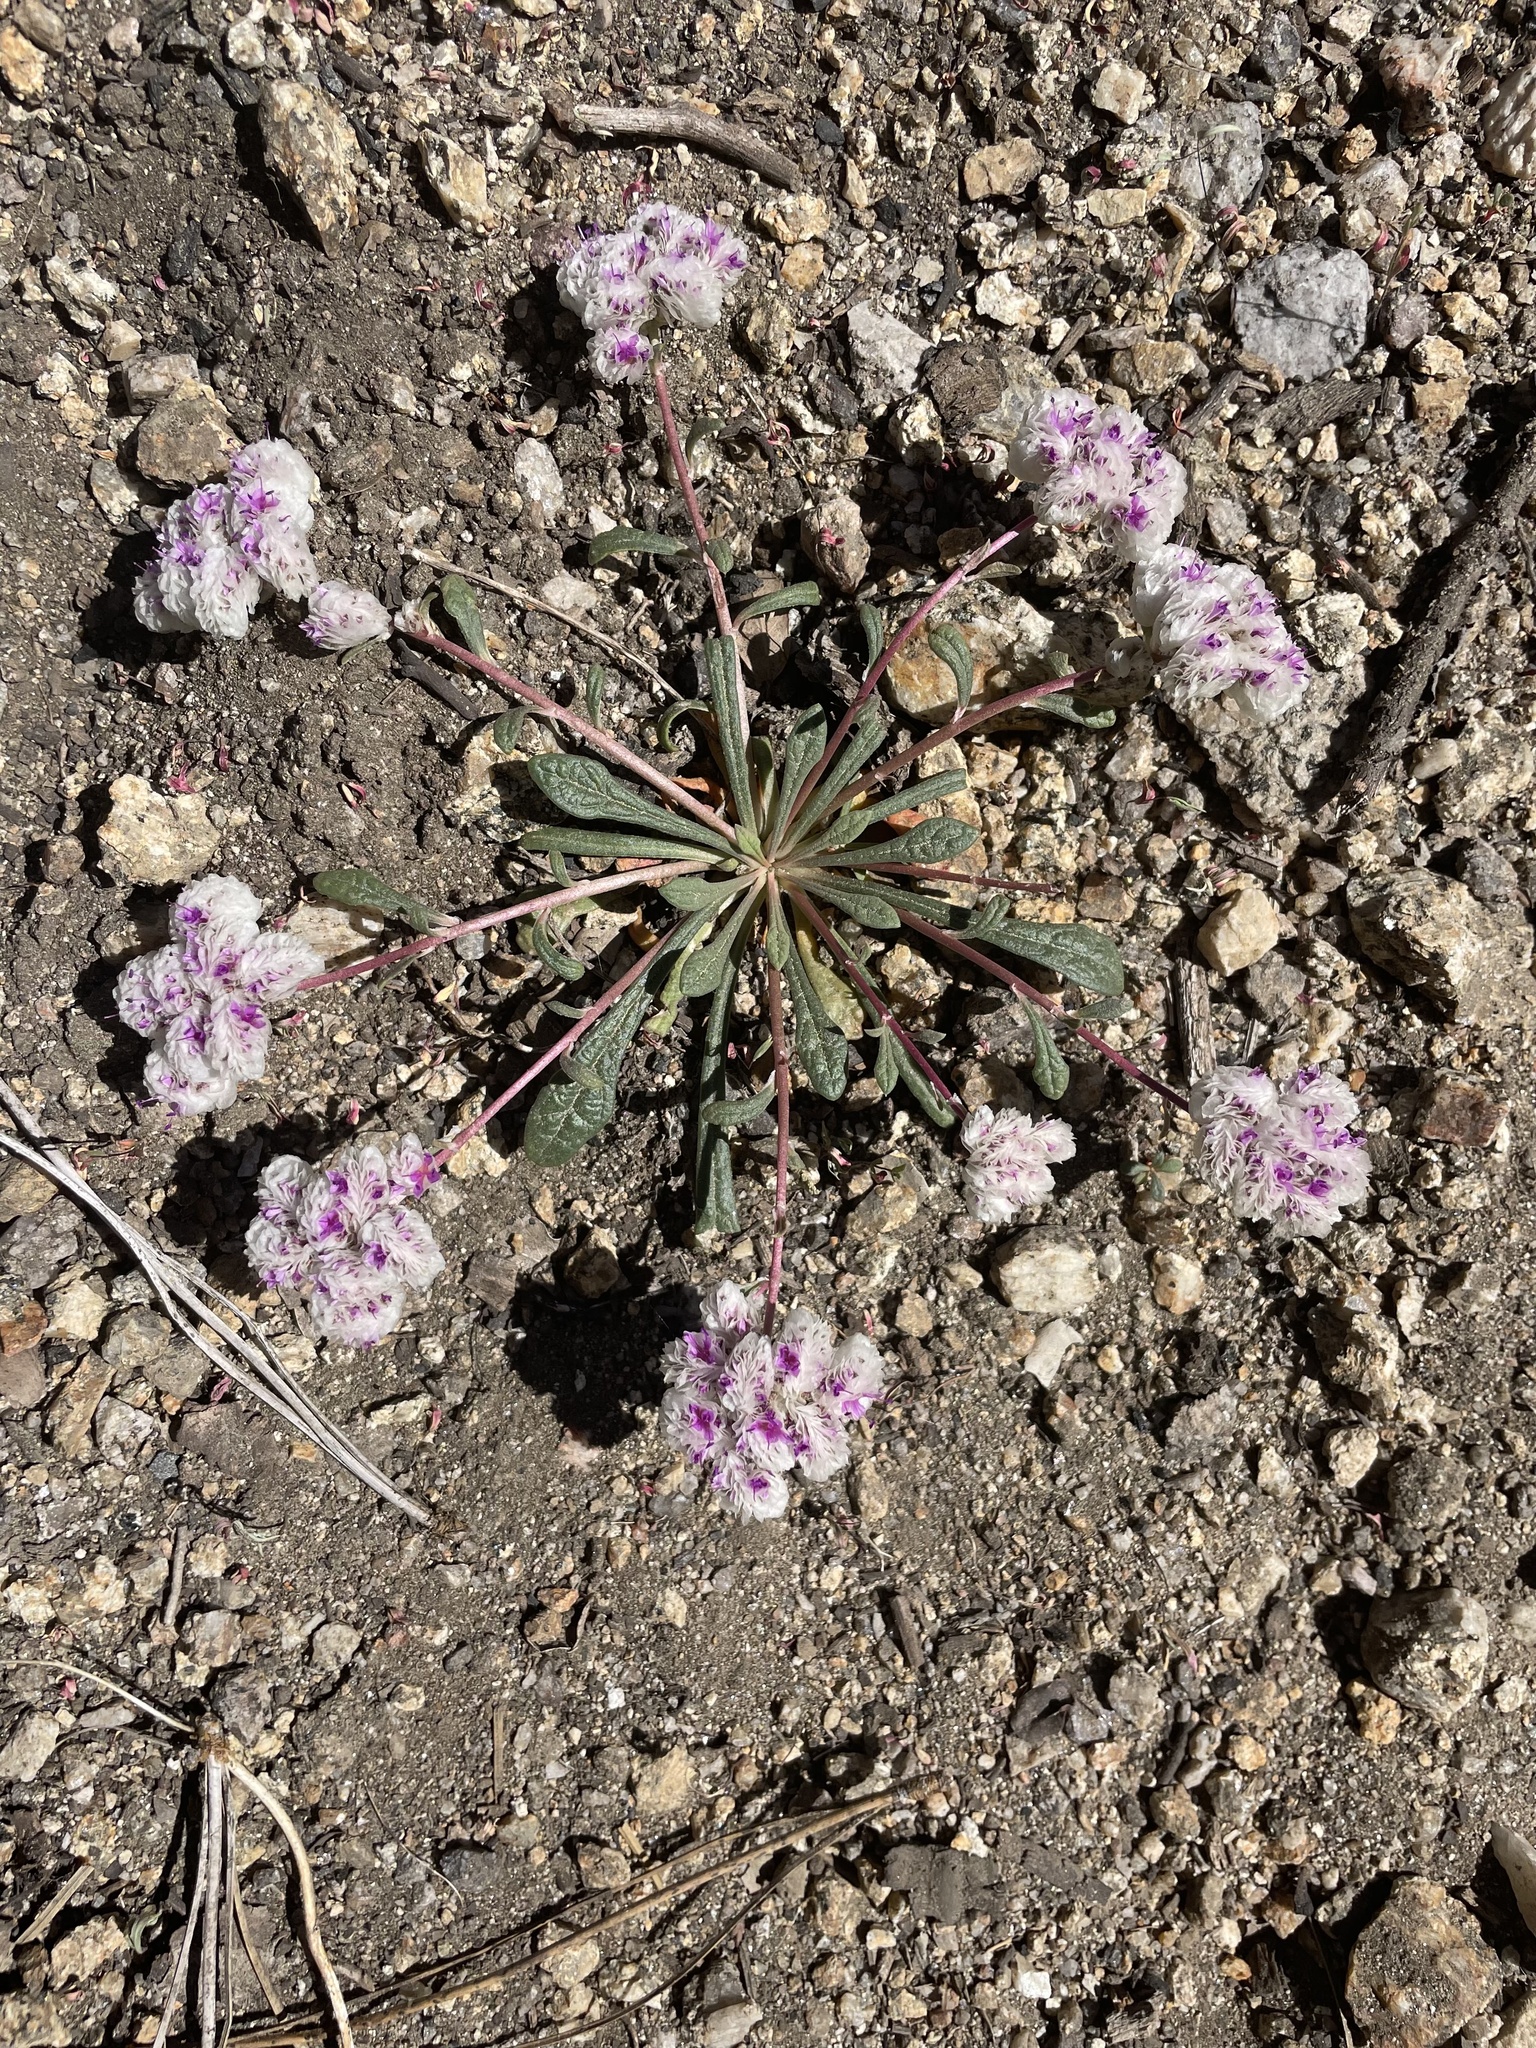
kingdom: Plantae
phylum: Tracheophyta
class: Magnoliopsida
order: Caryophyllales
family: Montiaceae
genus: Calyptridium
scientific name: Calyptridium monospermum
